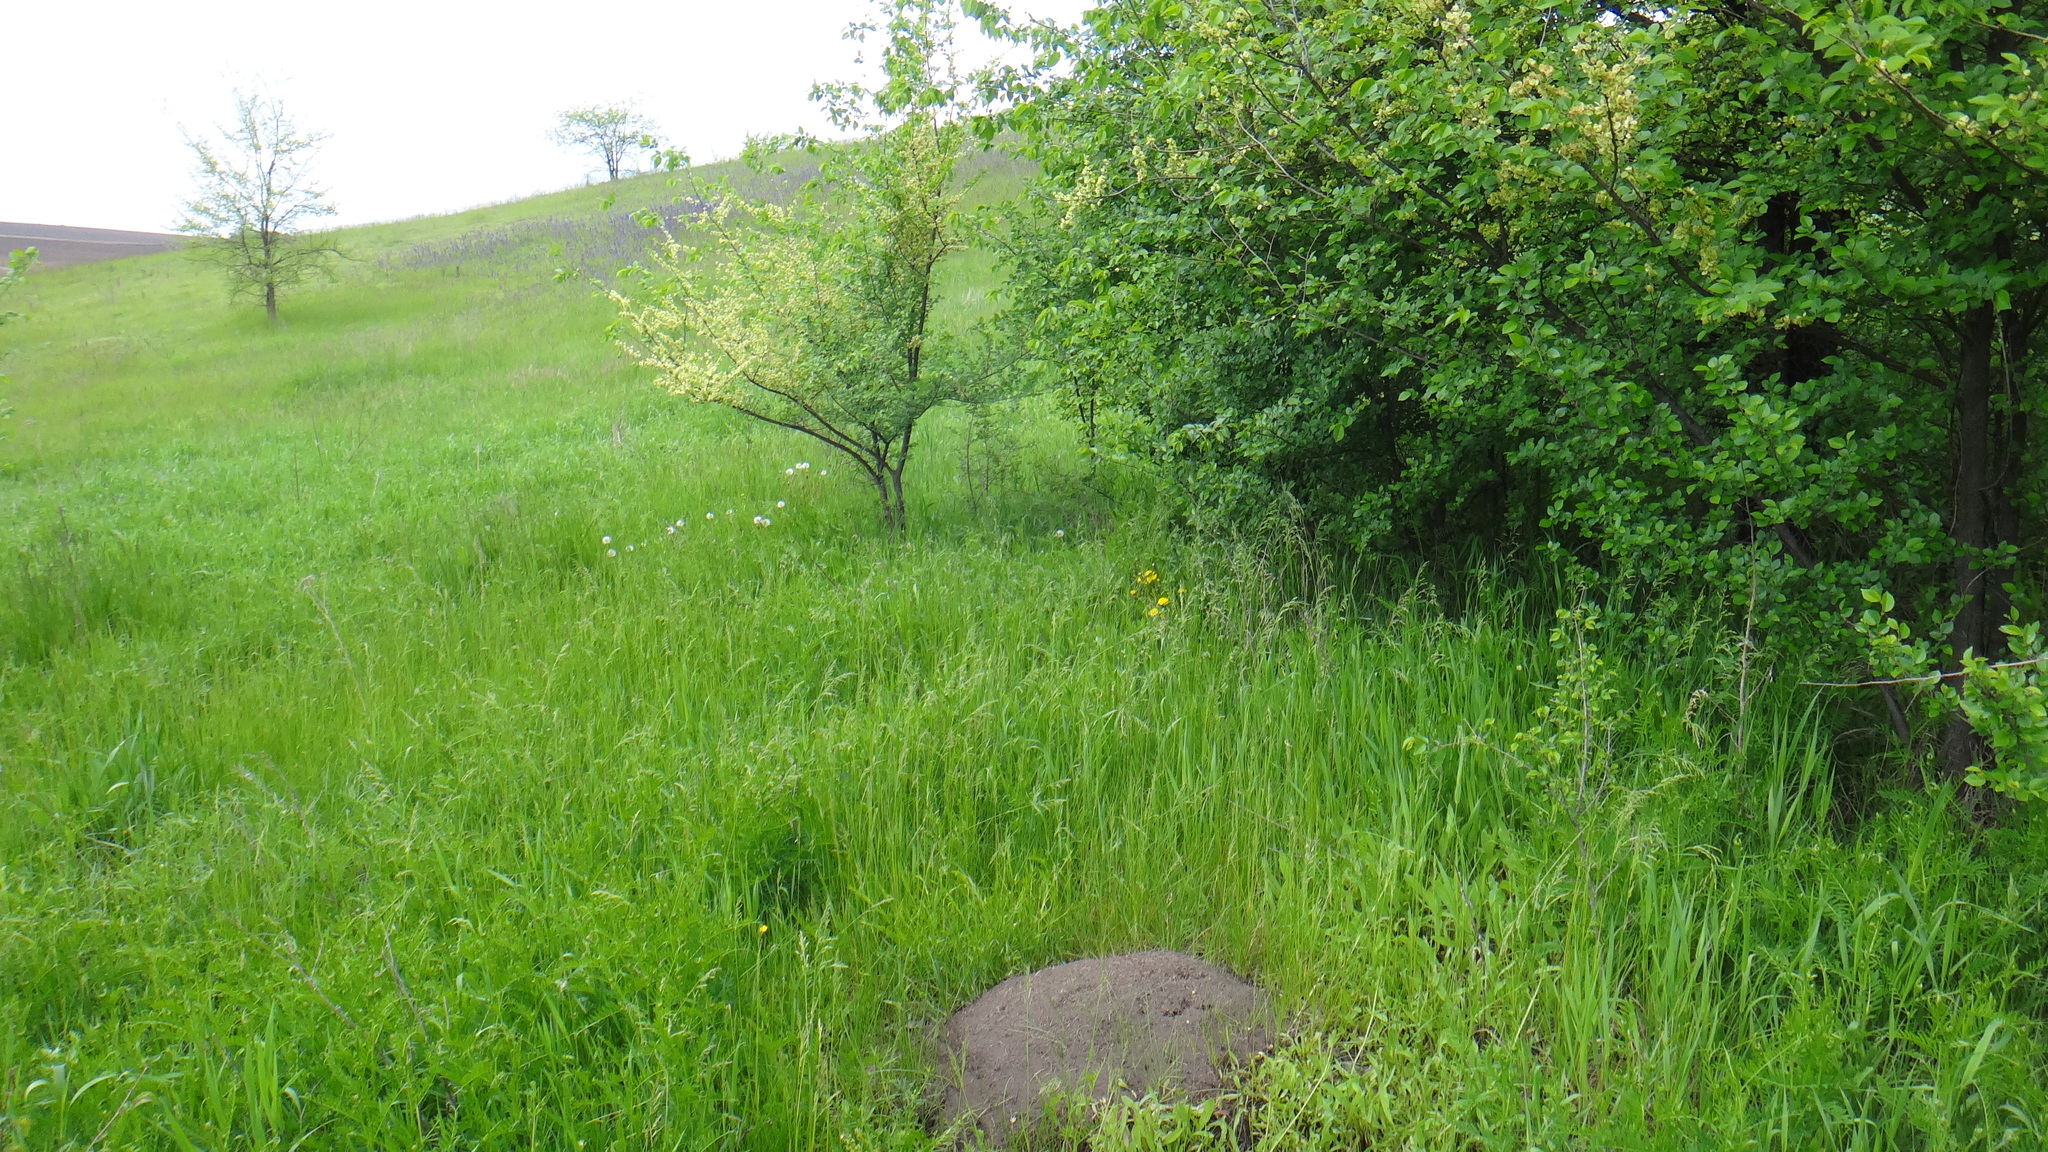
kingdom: Plantae
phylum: Tracheophyta
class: Magnoliopsida
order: Rosales
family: Ulmaceae
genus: Ulmus
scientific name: Ulmus minor
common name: Small-leaved elm
